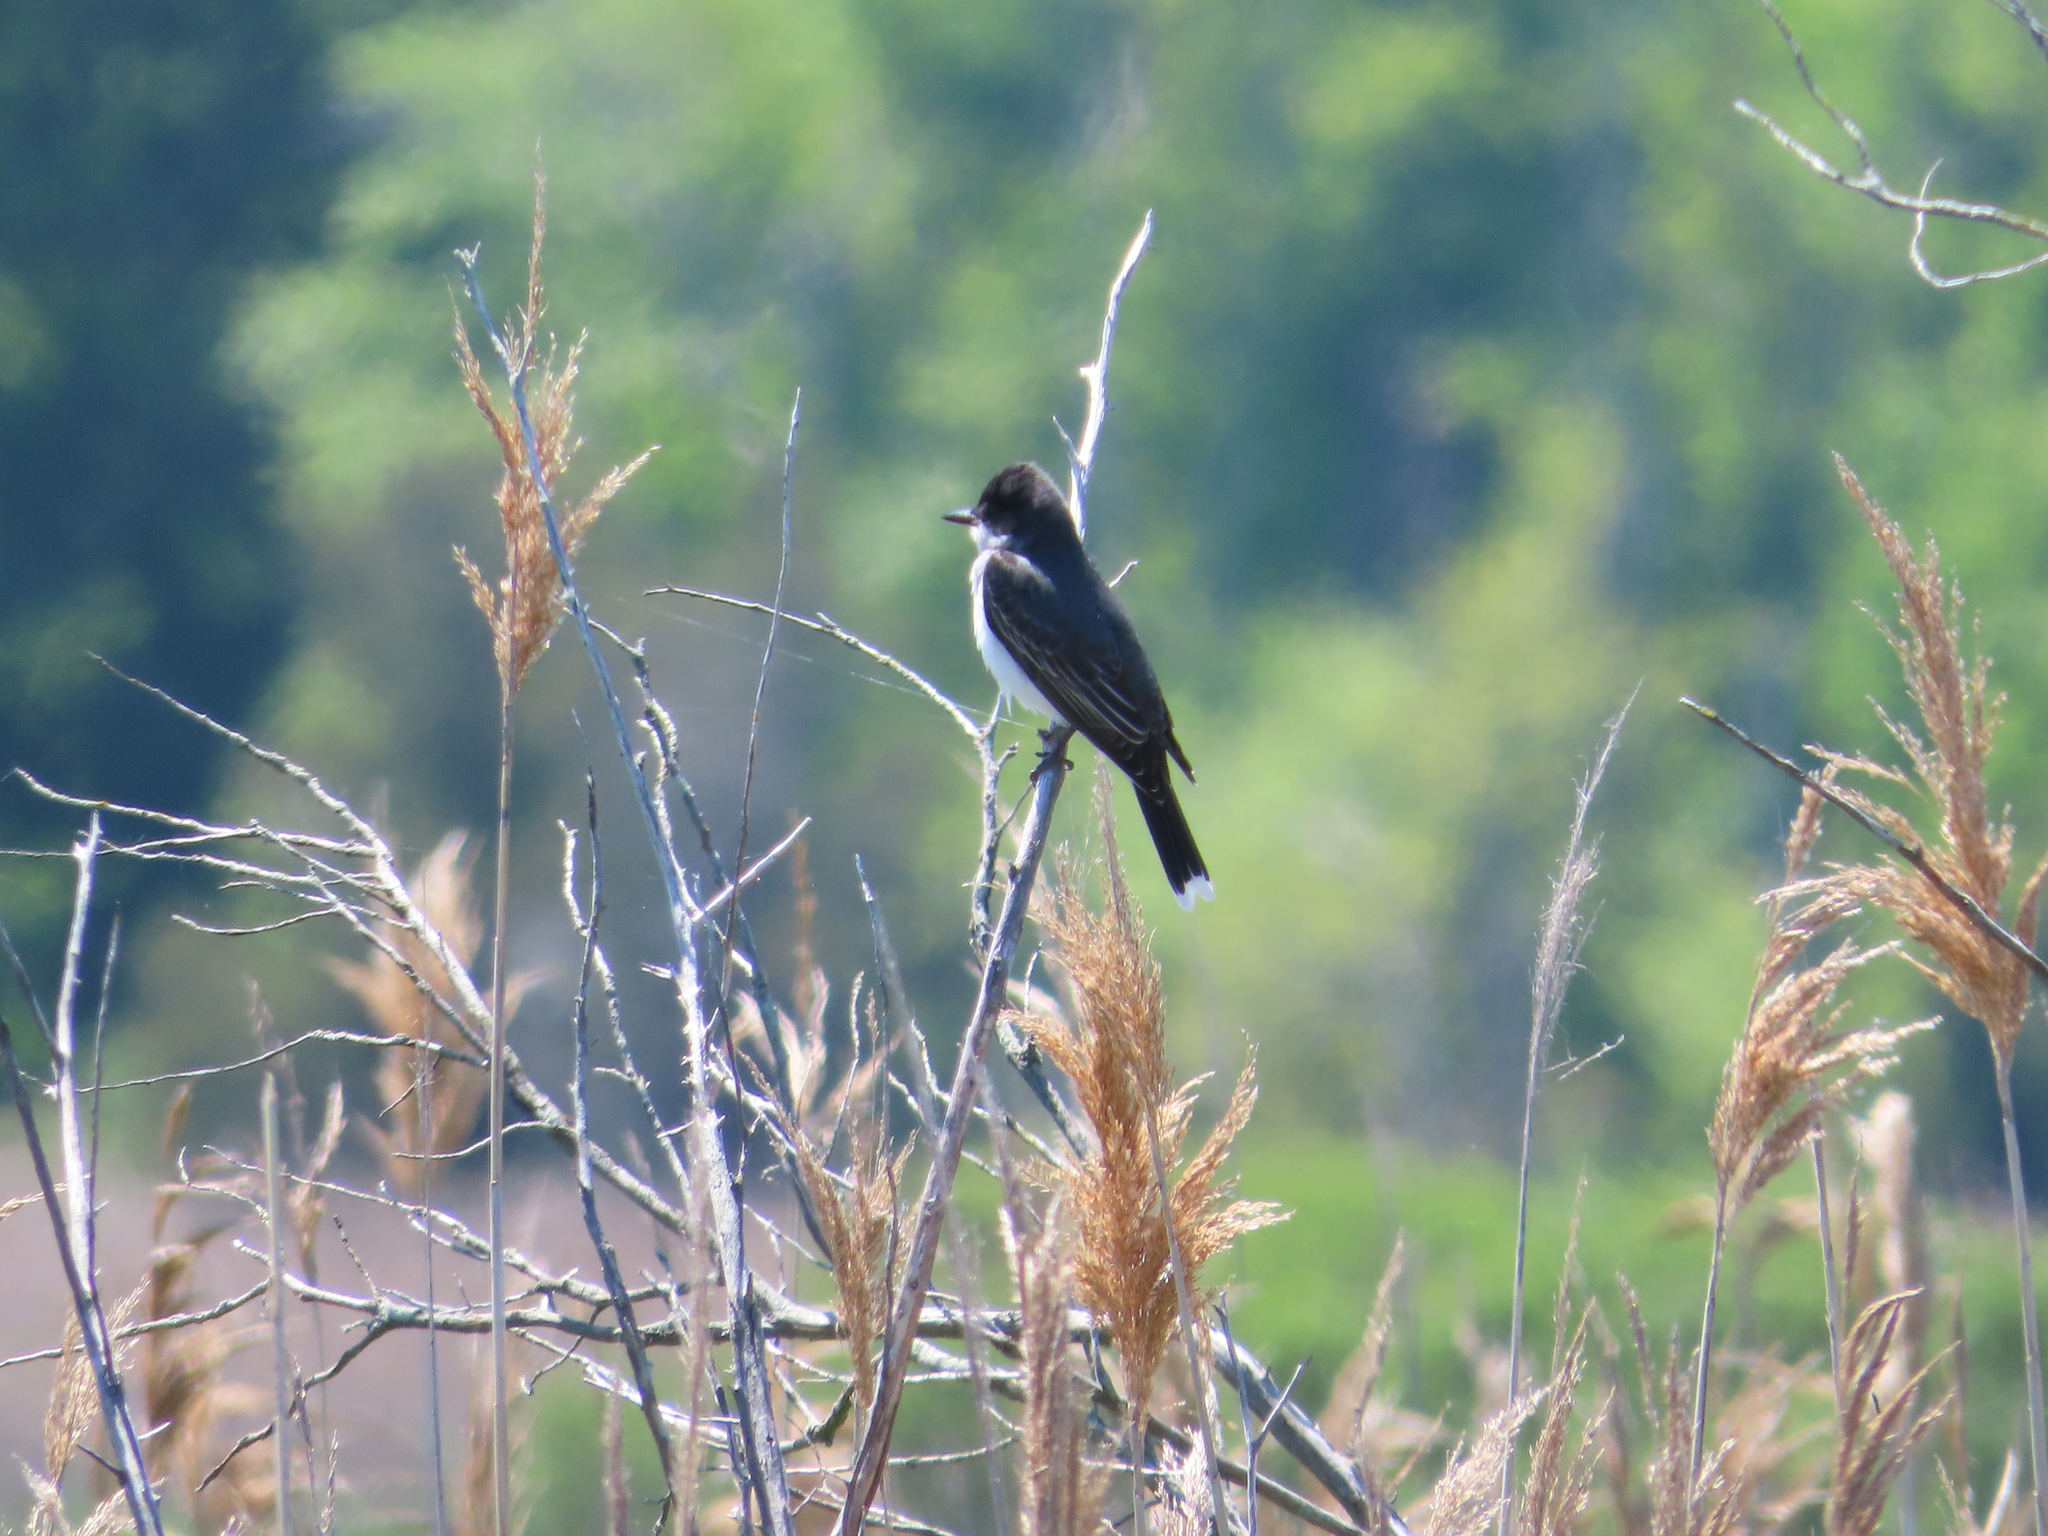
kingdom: Animalia
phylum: Chordata
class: Aves
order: Passeriformes
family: Tyrannidae
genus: Tyrannus
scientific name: Tyrannus tyrannus
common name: Eastern kingbird
